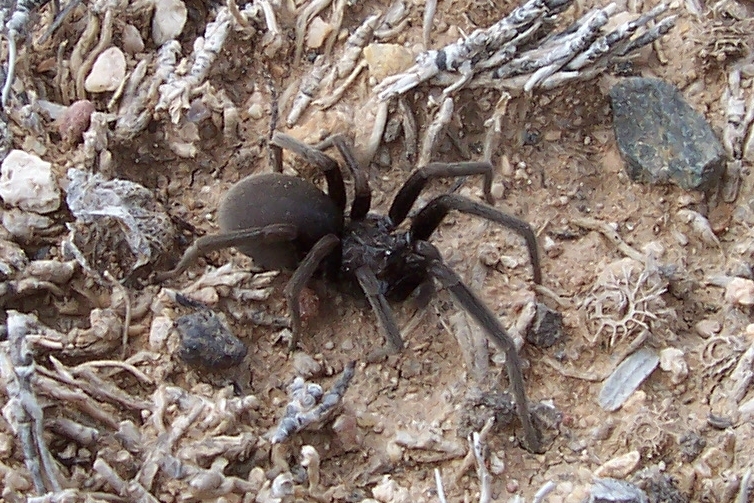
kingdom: Animalia
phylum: Arthropoda
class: Arachnida
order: Araneae
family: Filistatidae
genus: Kukulcania
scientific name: Kukulcania arizonica
